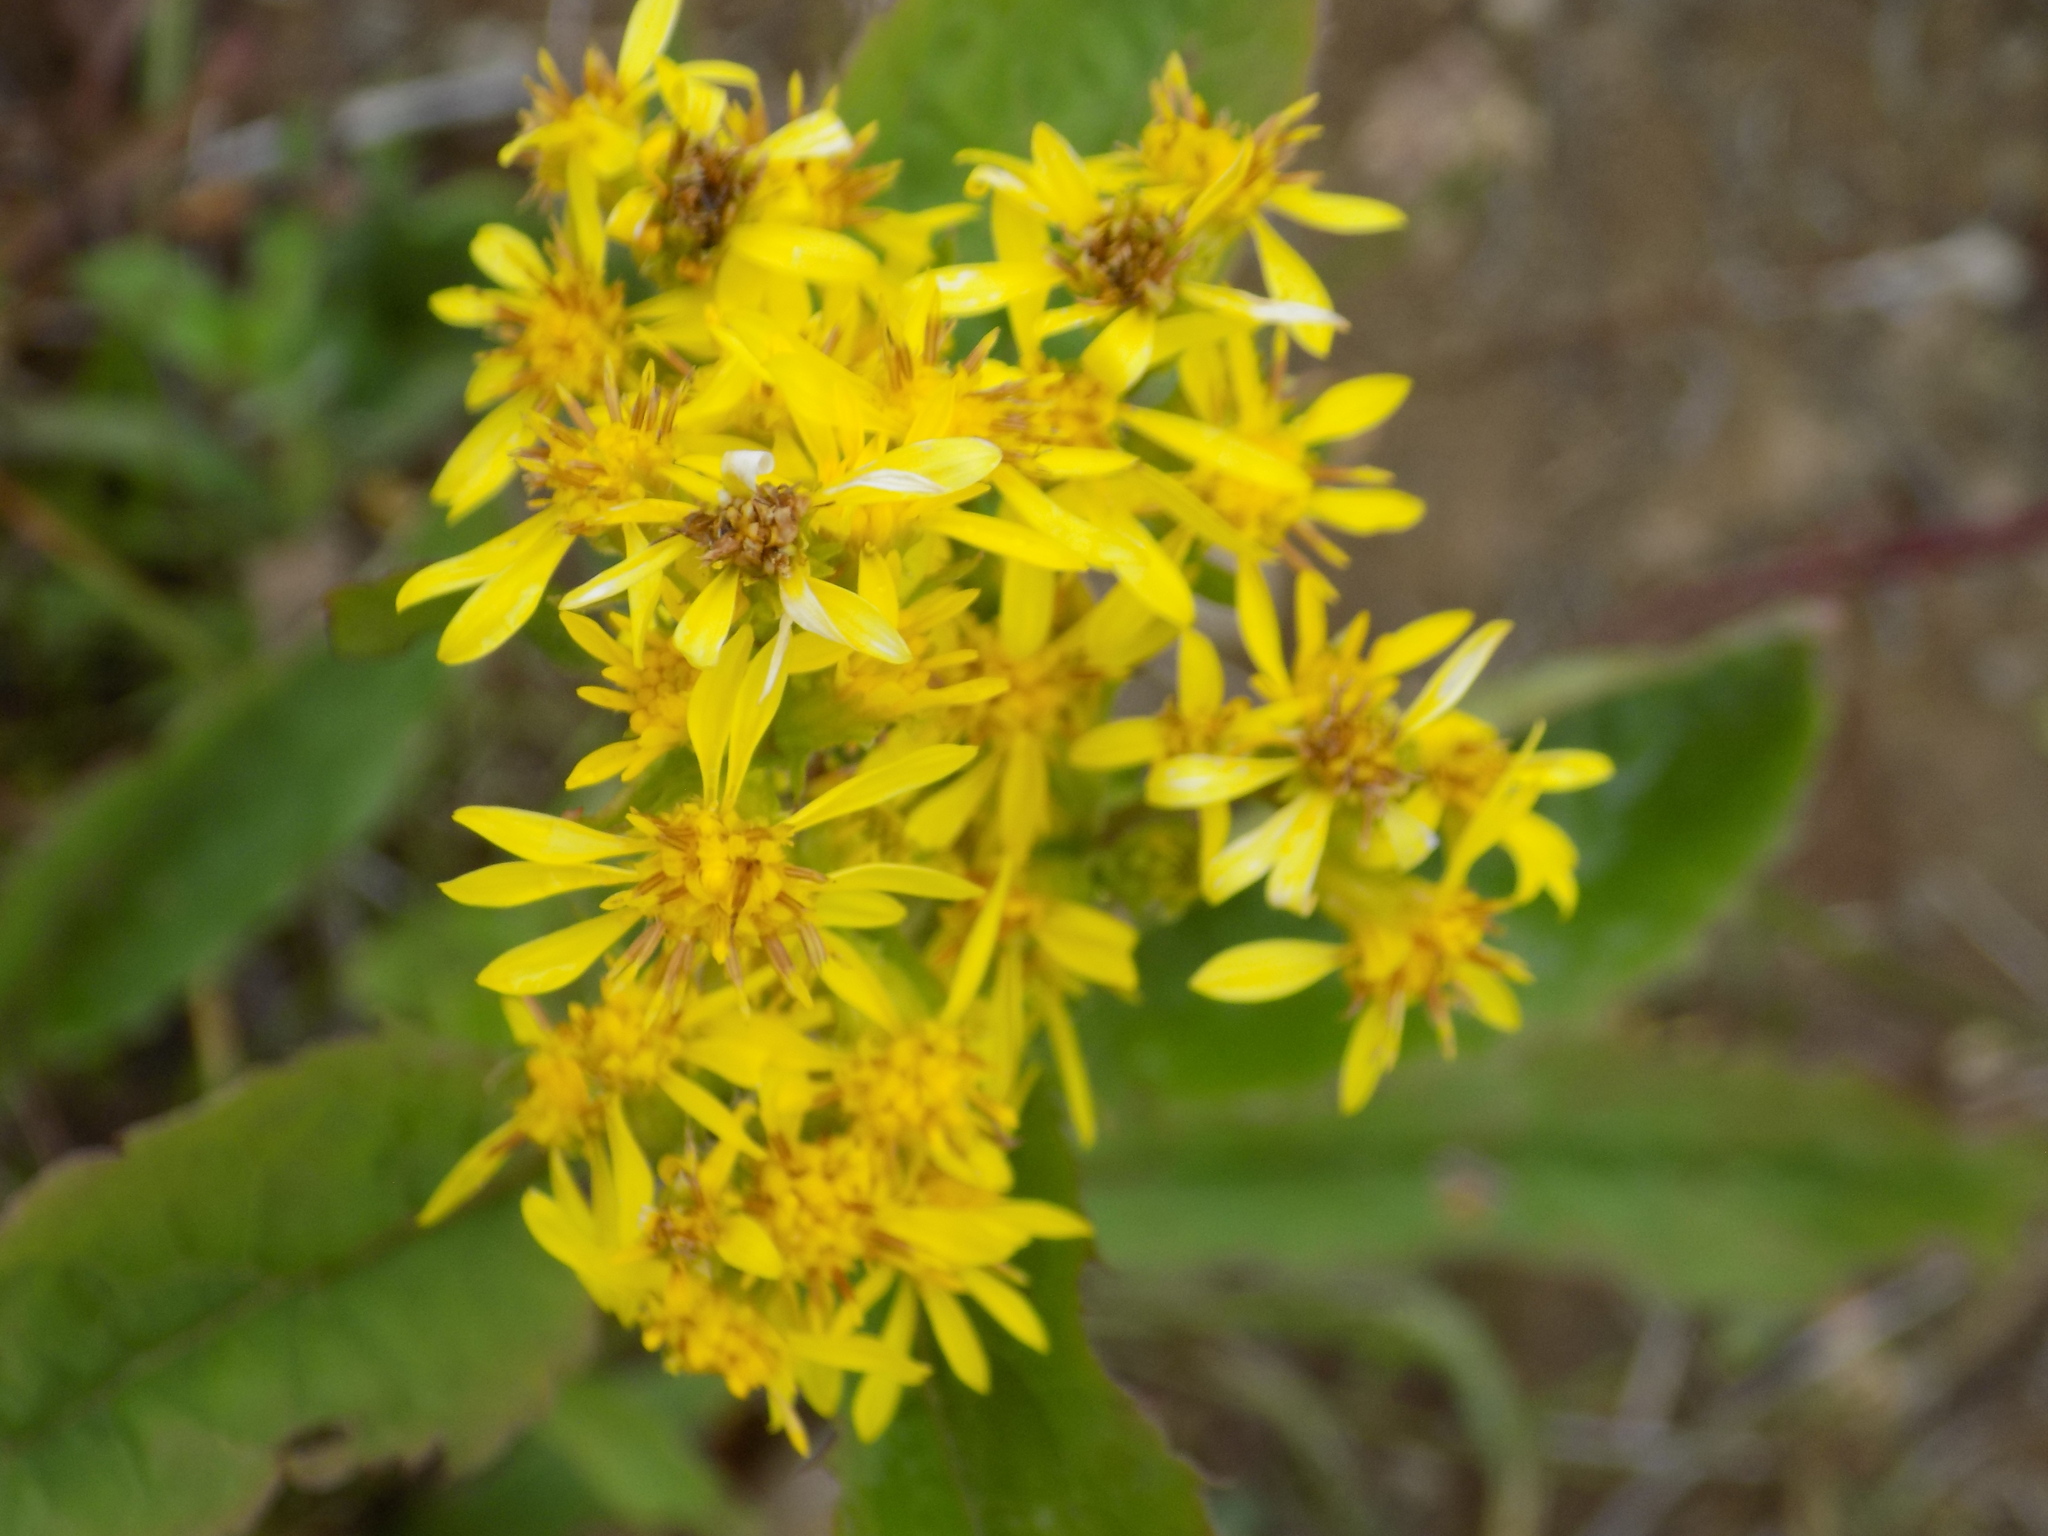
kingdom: Plantae
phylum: Tracheophyta
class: Magnoliopsida
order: Asterales
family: Asteraceae
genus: Solidago
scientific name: Solidago virgaurea
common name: Goldenrod
